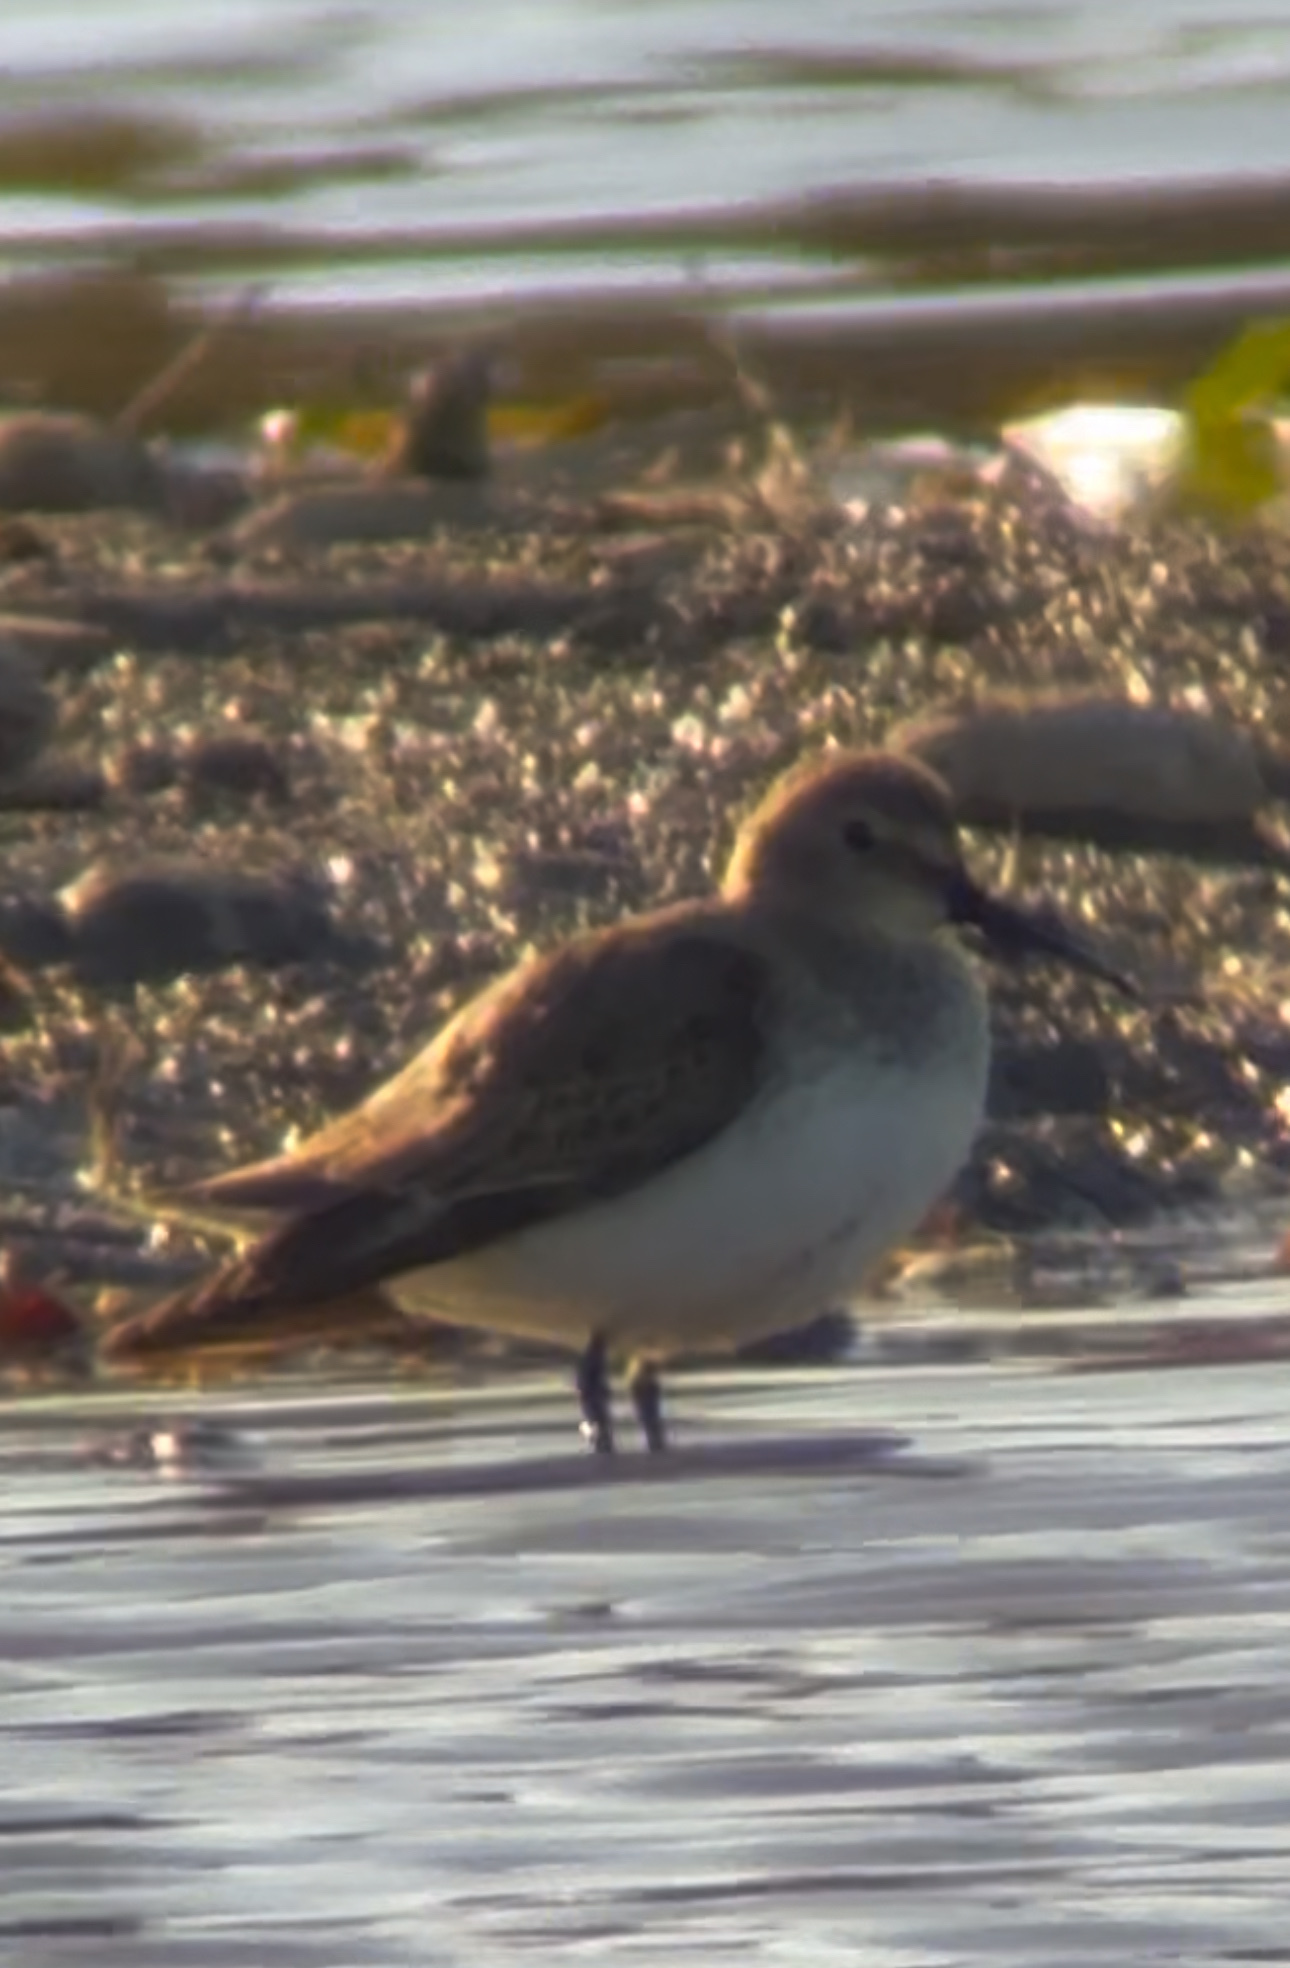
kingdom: Animalia
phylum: Chordata
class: Aves
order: Charadriiformes
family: Scolopacidae
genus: Calidris
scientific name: Calidris alpina
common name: Dunlin
